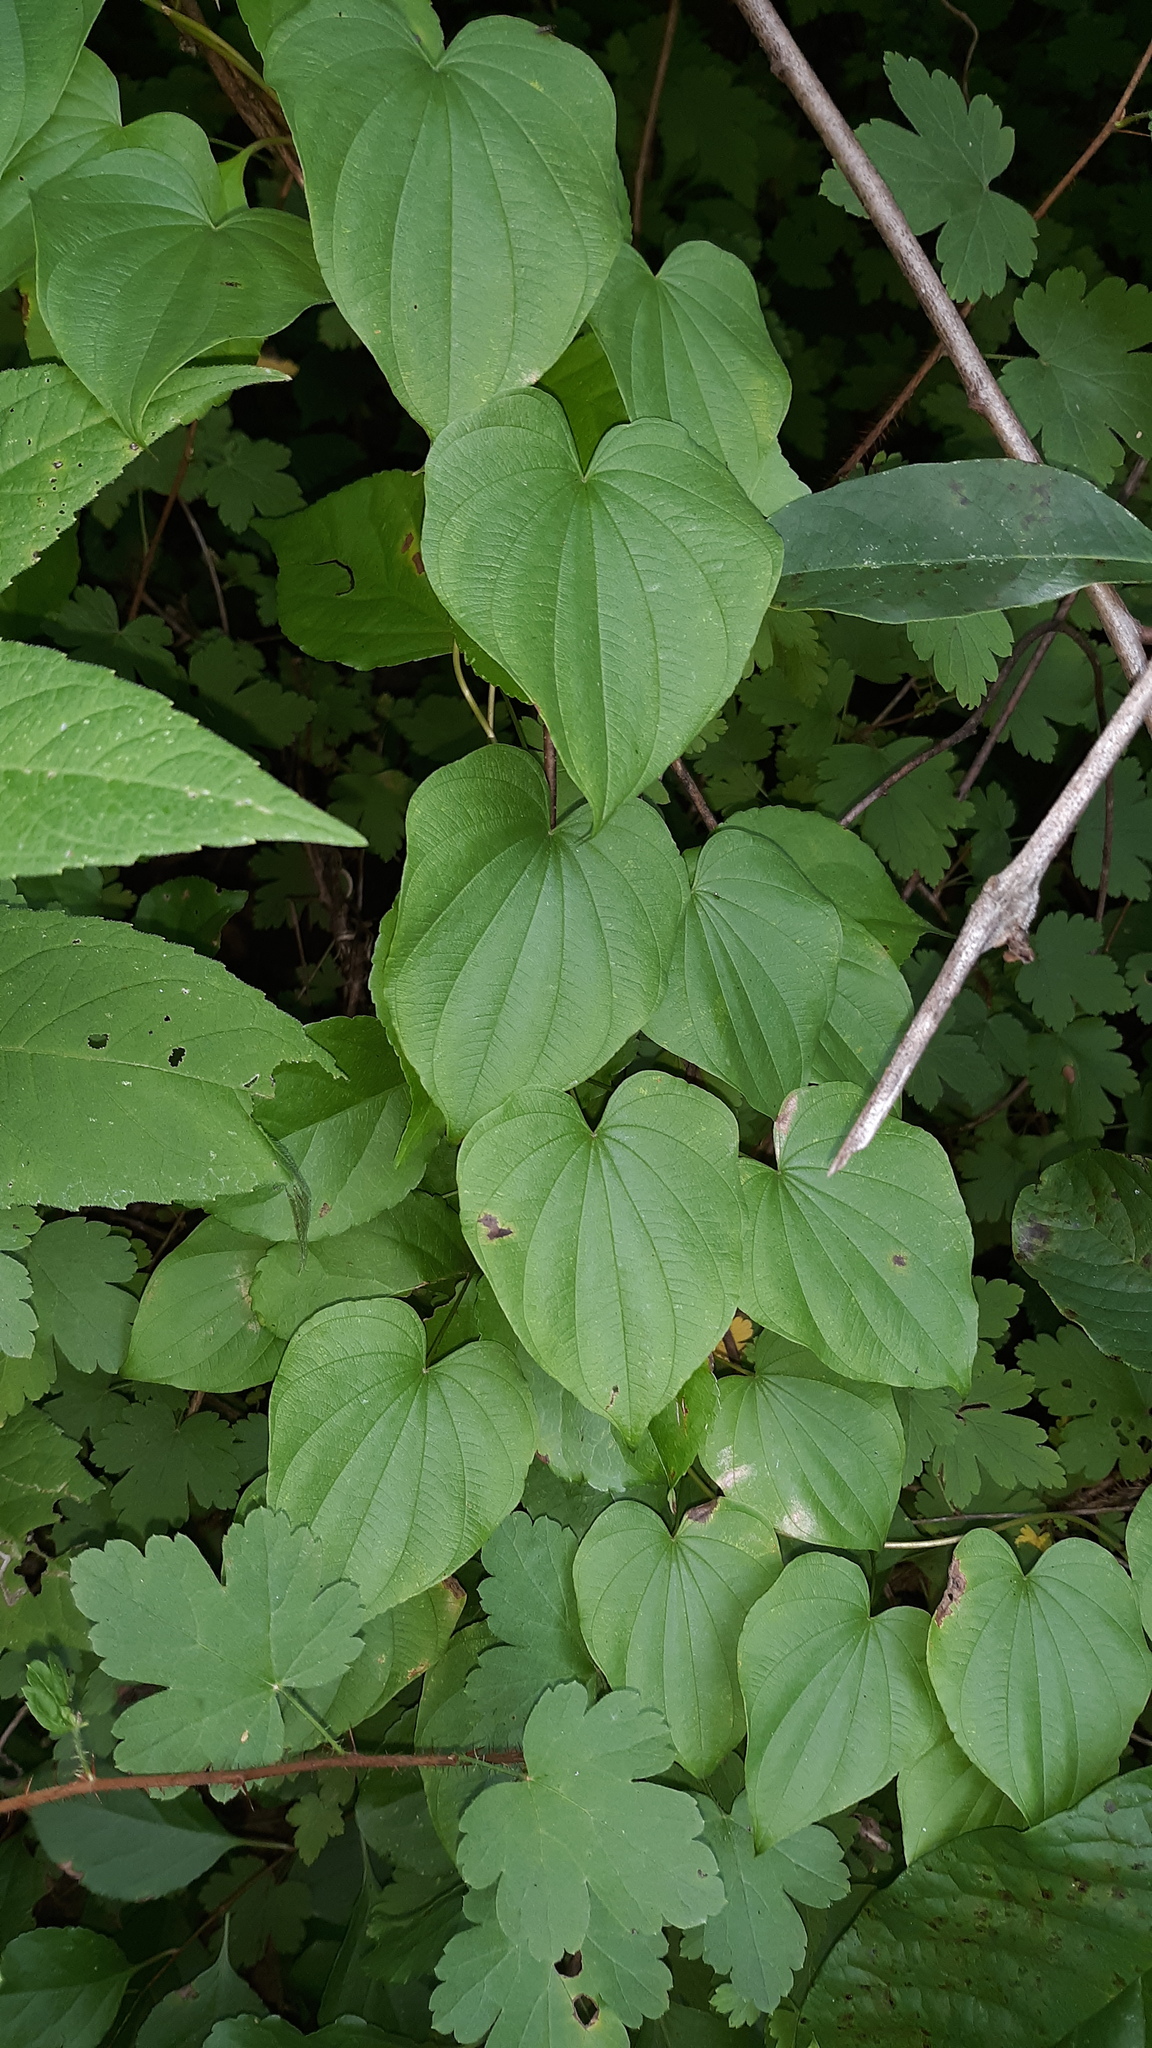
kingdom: Plantae
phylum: Tracheophyta
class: Liliopsida
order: Dioscoreales
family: Dioscoreaceae
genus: Dioscorea
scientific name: Dioscorea villosa
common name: Wild yam
